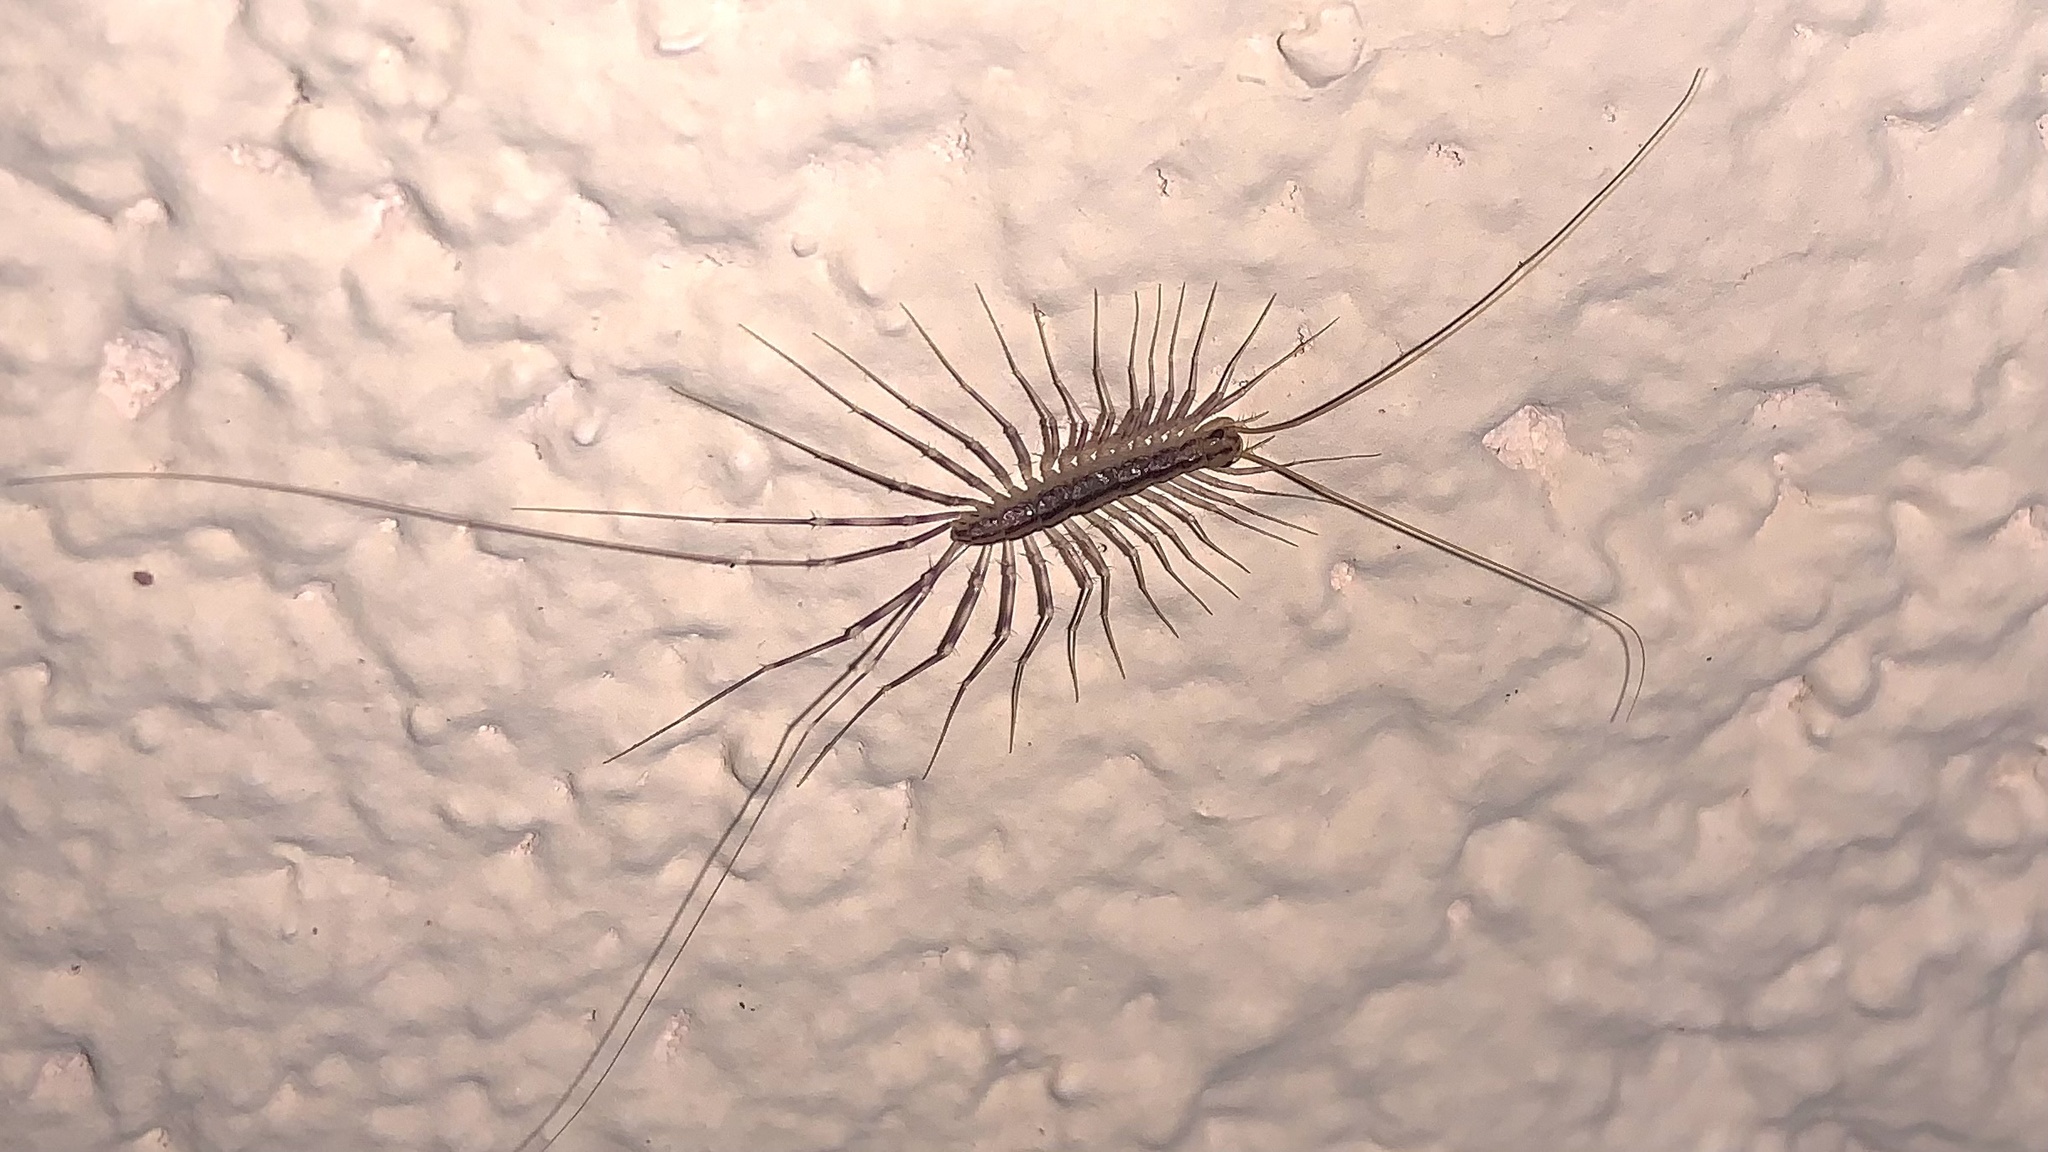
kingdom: Animalia
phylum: Arthropoda
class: Chilopoda
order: Scutigeromorpha
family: Scutigeridae
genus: Scutigera
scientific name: Scutigera coleoptrata
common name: House centipede
